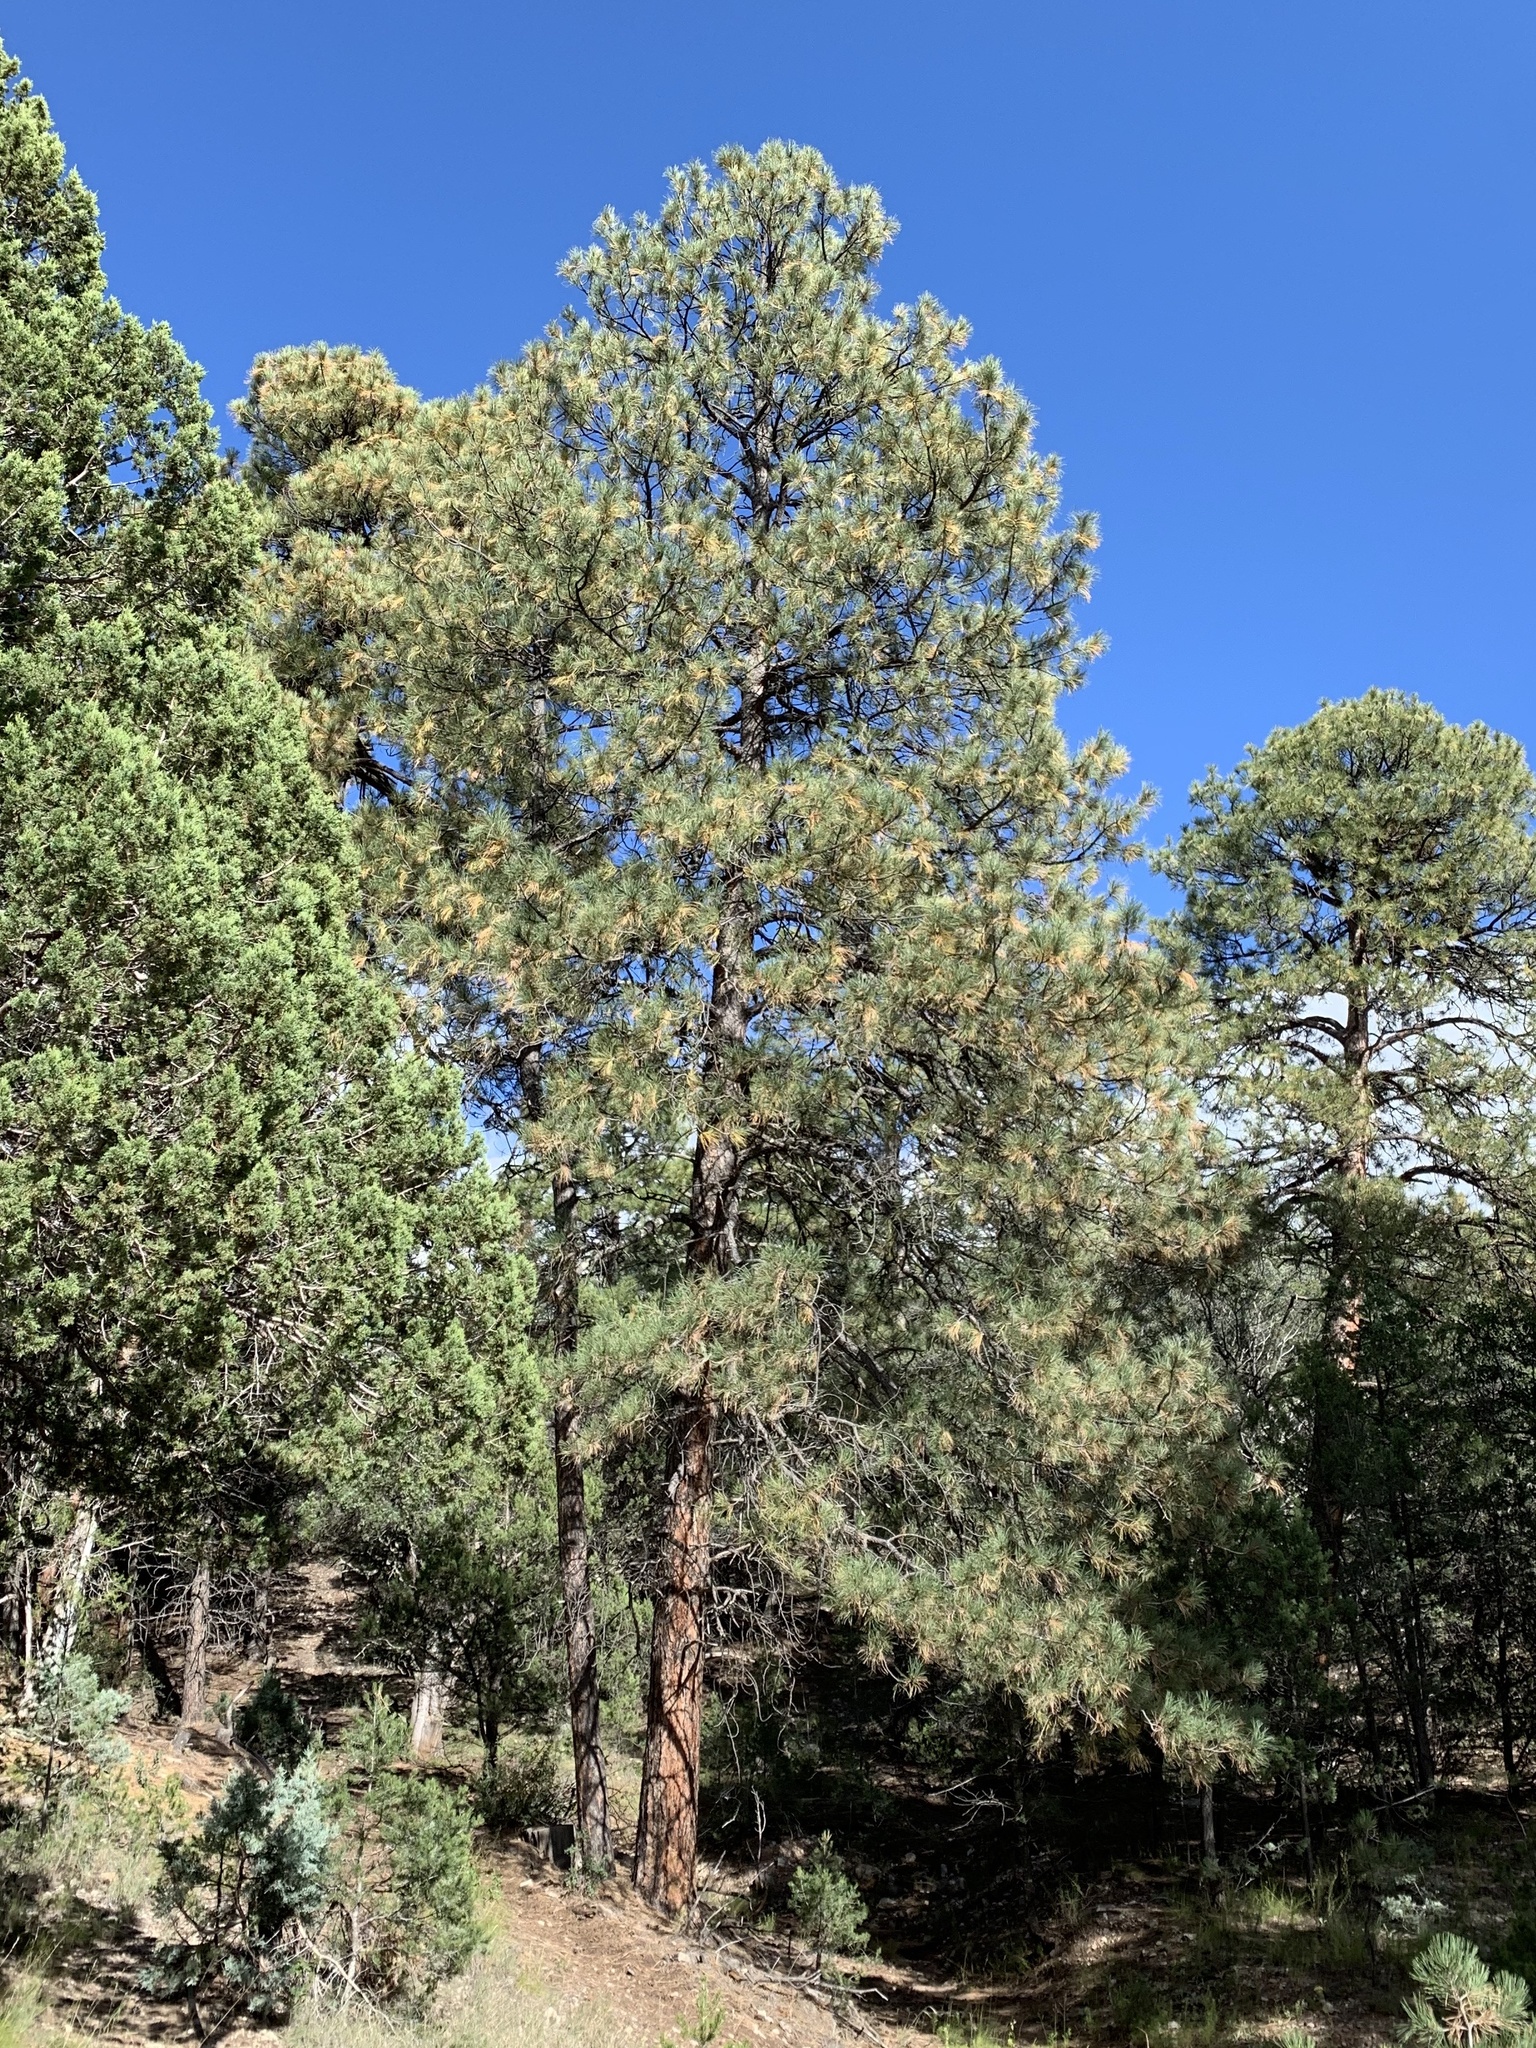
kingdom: Plantae
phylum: Tracheophyta
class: Pinopsida
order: Pinales
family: Pinaceae
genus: Pinus
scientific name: Pinus ponderosa
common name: Western yellow-pine
